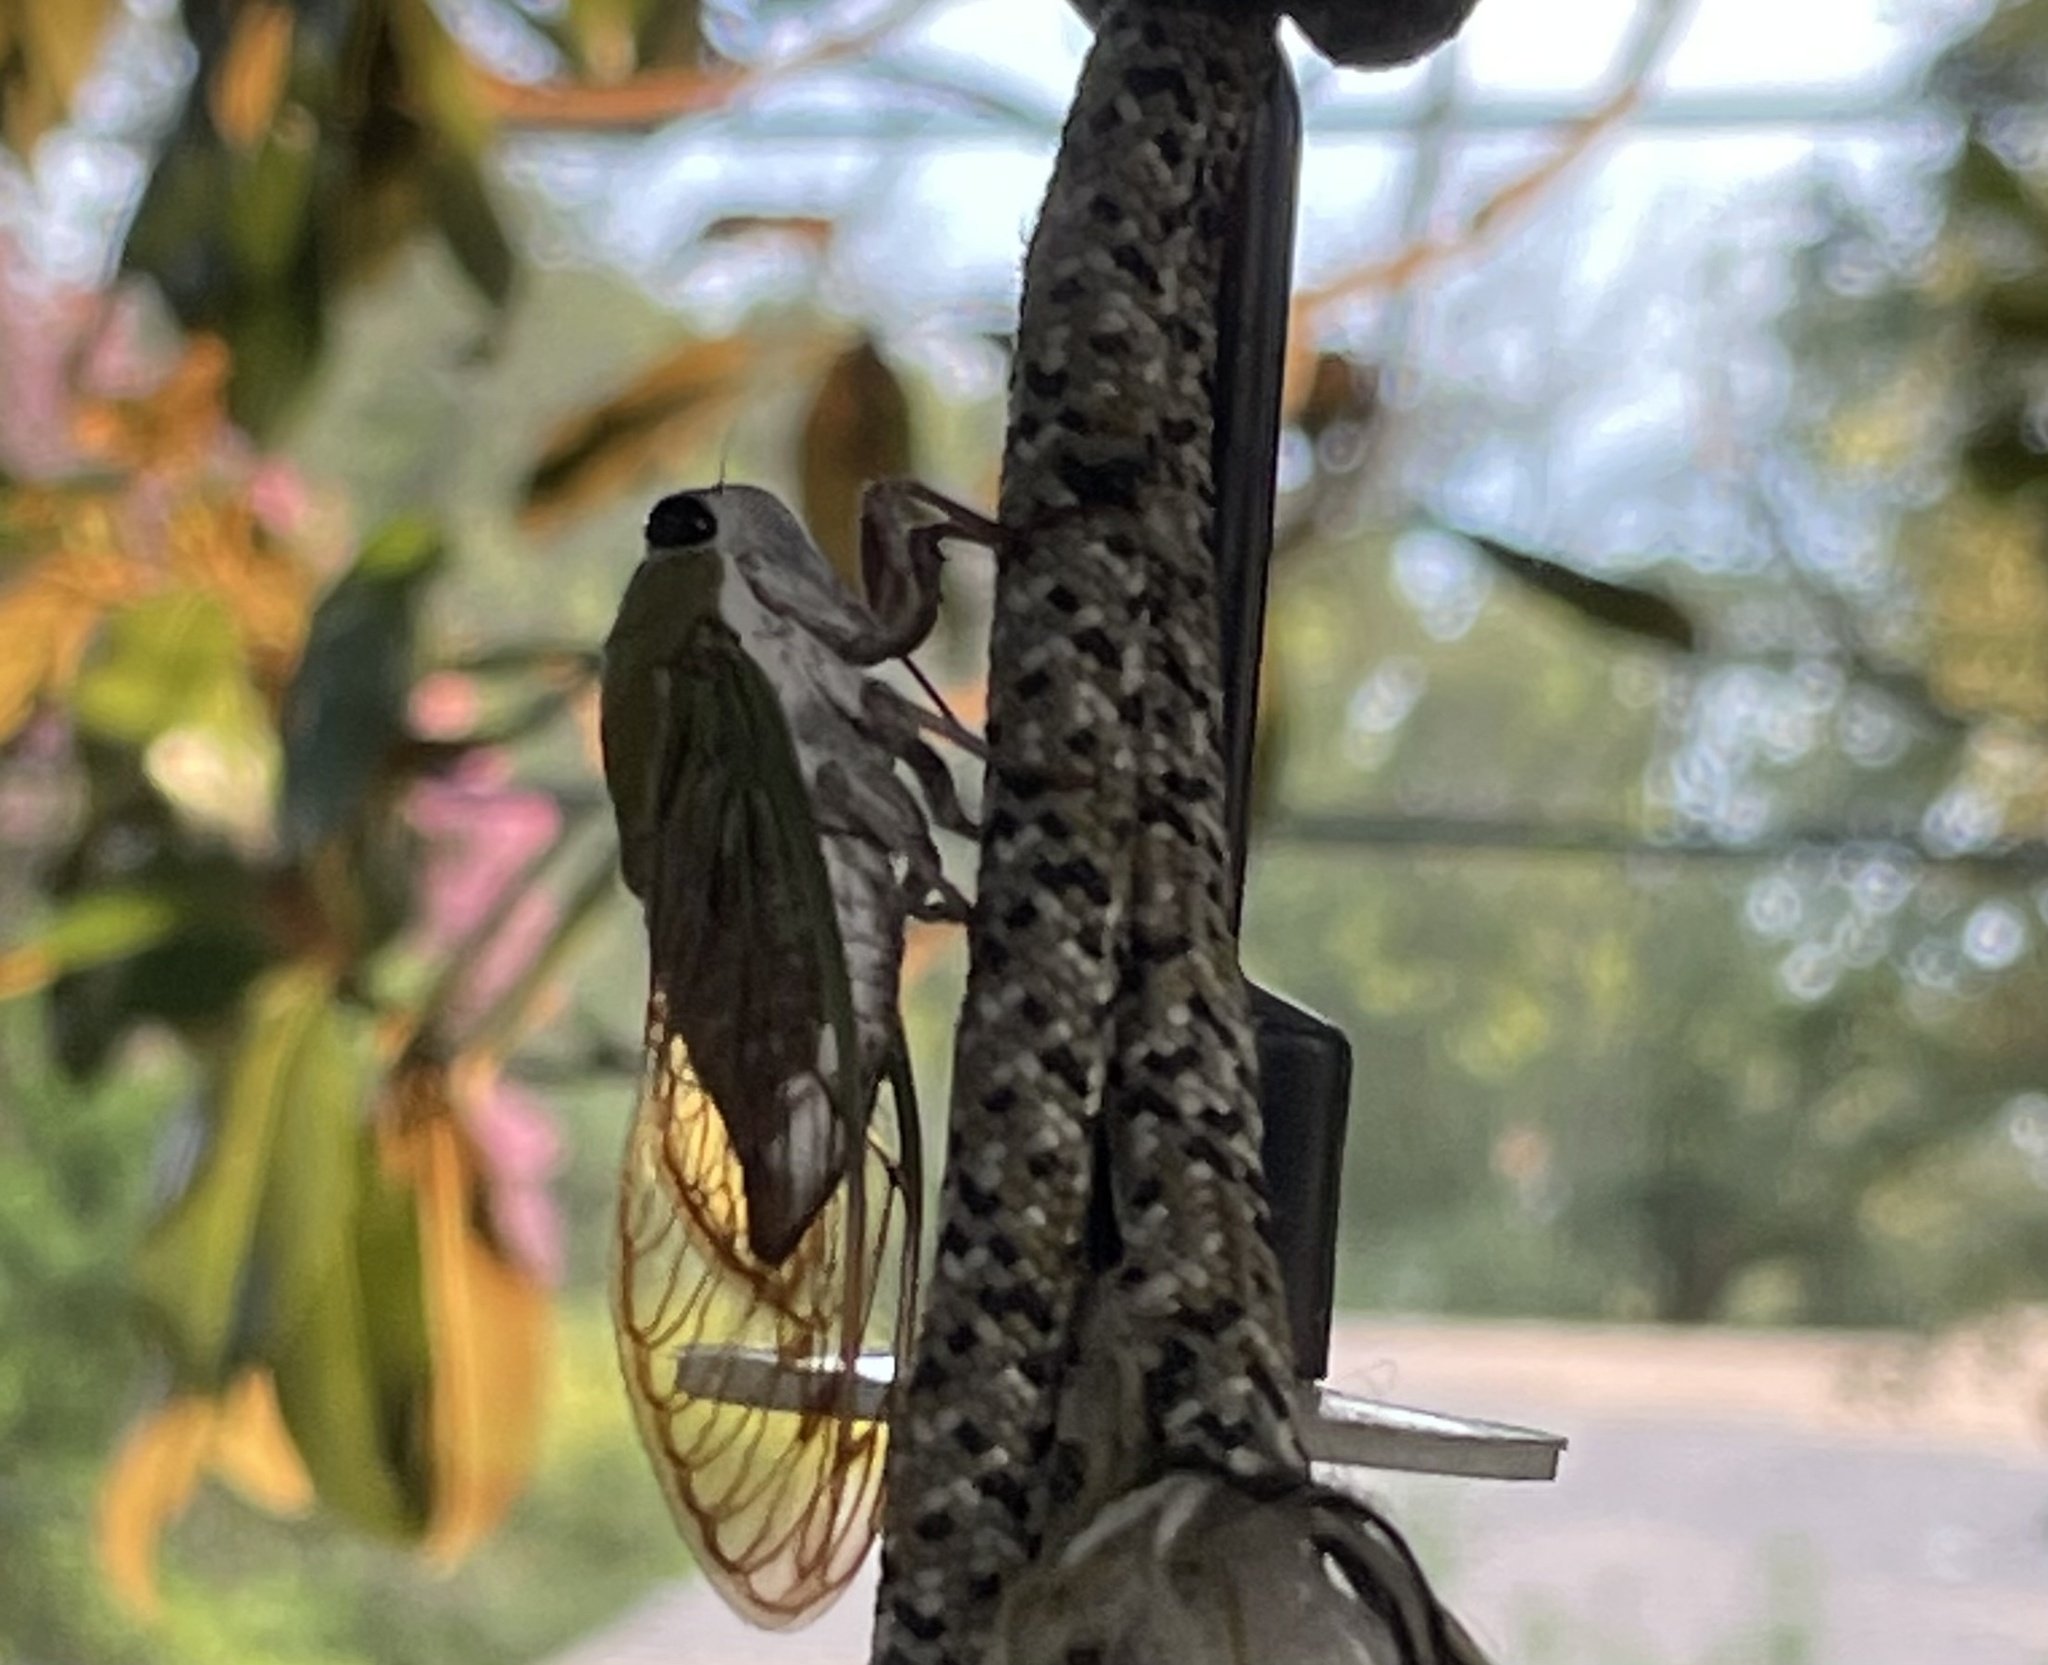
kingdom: Animalia
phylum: Arthropoda
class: Insecta
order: Hemiptera
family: Cicadidae
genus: Neotibicen
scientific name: Neotibicen superbus
